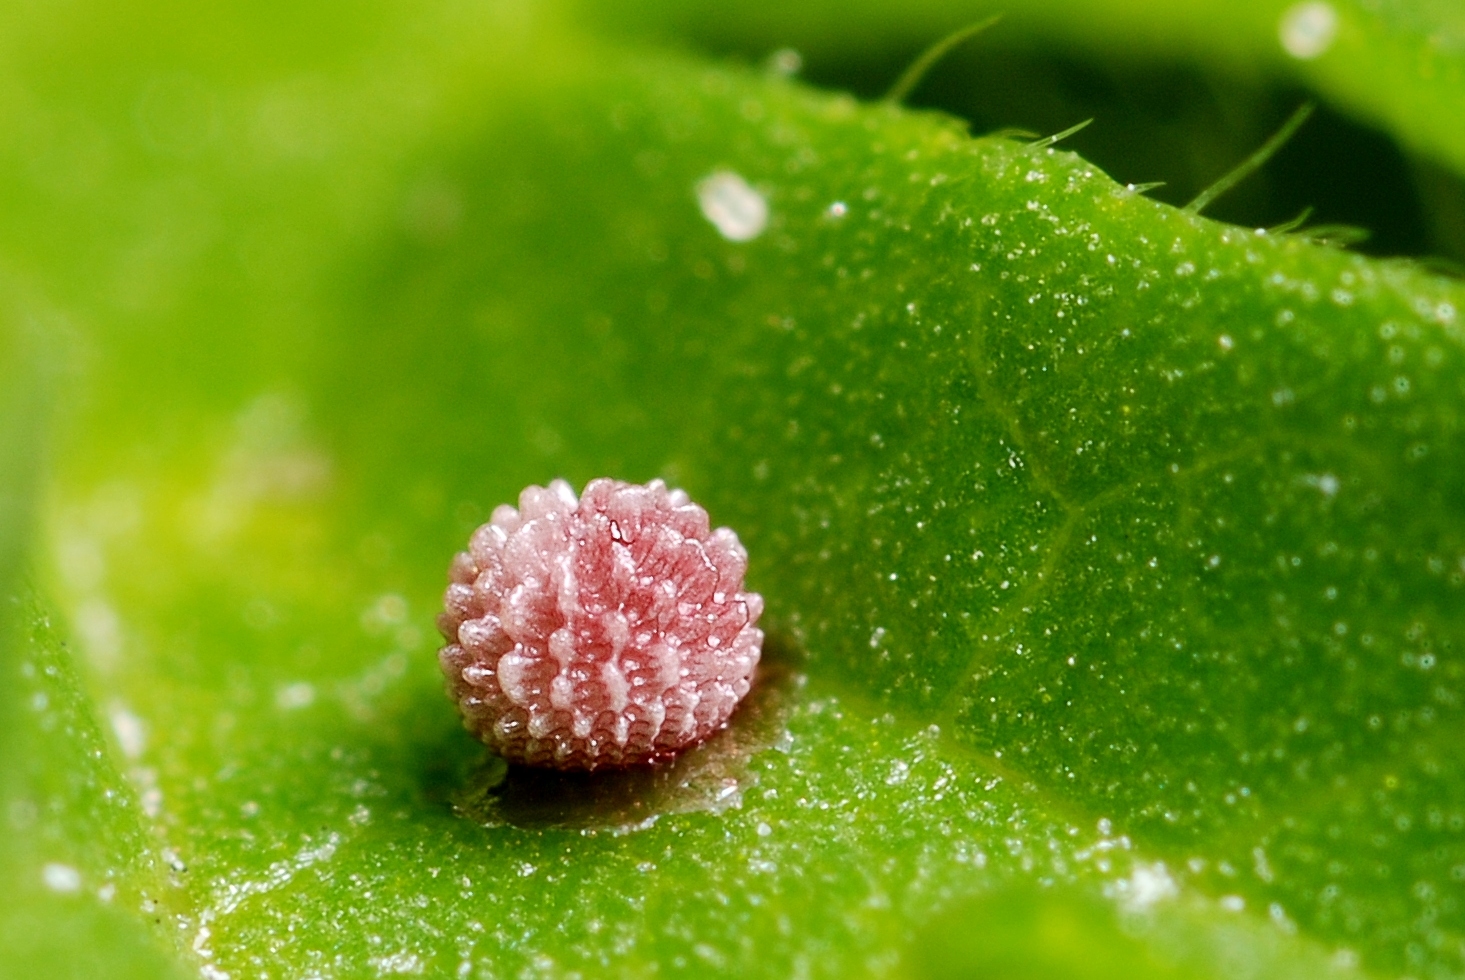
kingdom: Animalia
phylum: Arthropoda
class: Insecta
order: Lepidoptera
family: Hesperiidae
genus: Carcharodus
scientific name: Carcharodus alceae
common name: Mallow skipper
